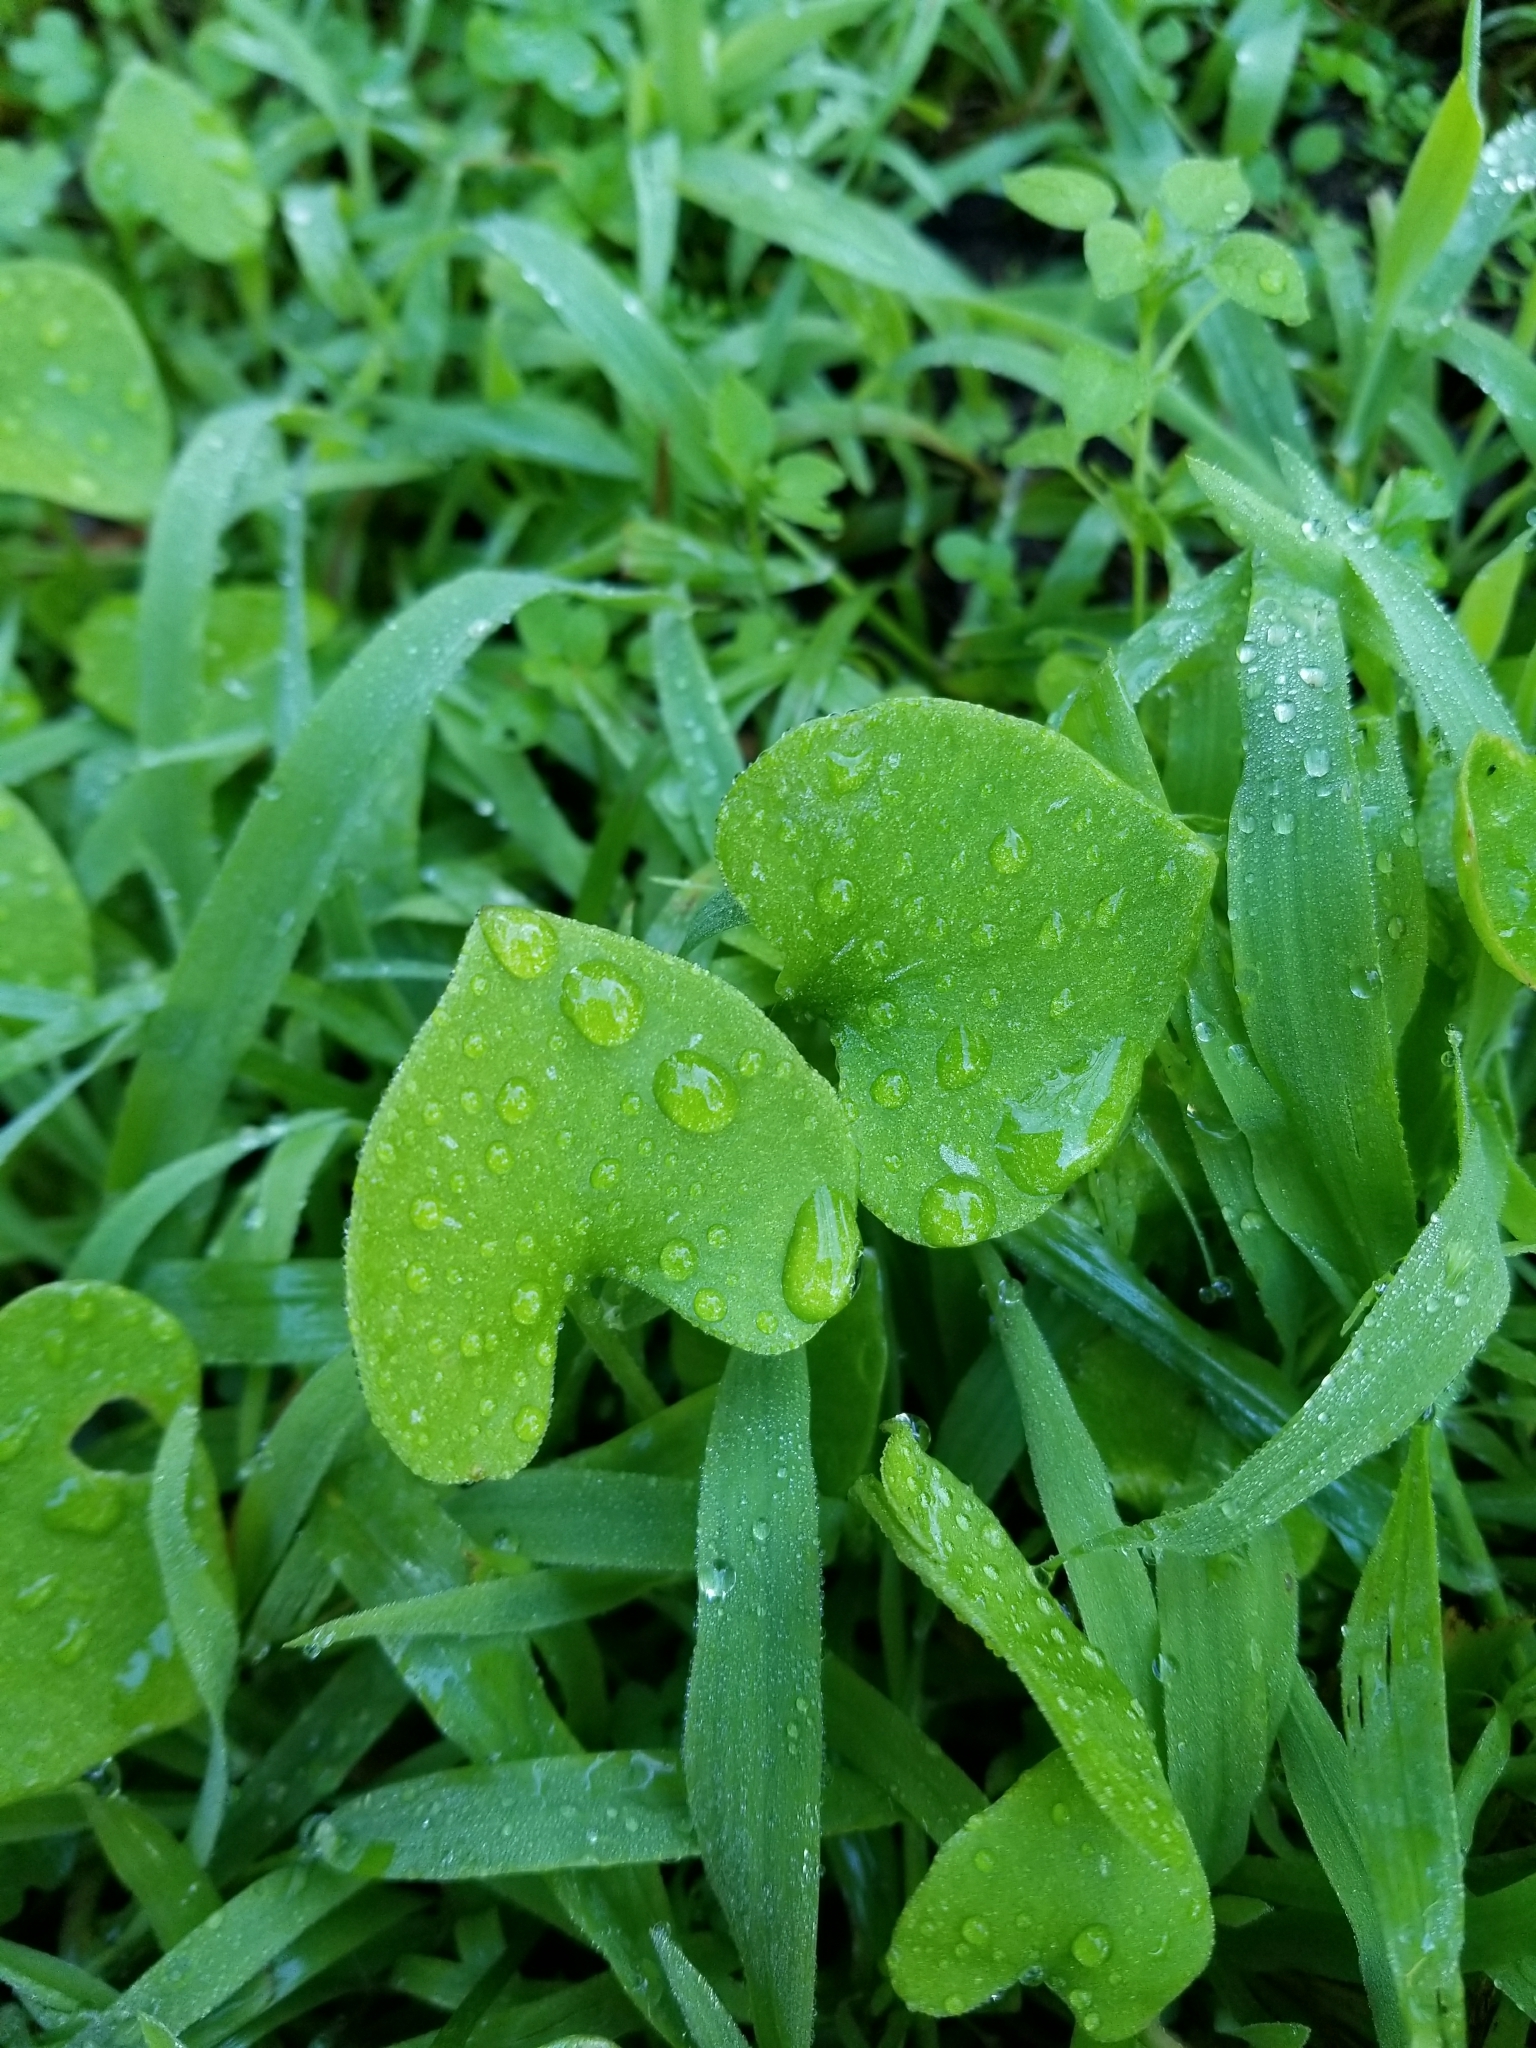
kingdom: Plantae
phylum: Tracheophyta
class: Magnoliopsida
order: Caryophyllales
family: Montiaceae
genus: Claytonia
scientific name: Claytonia perfoliata
